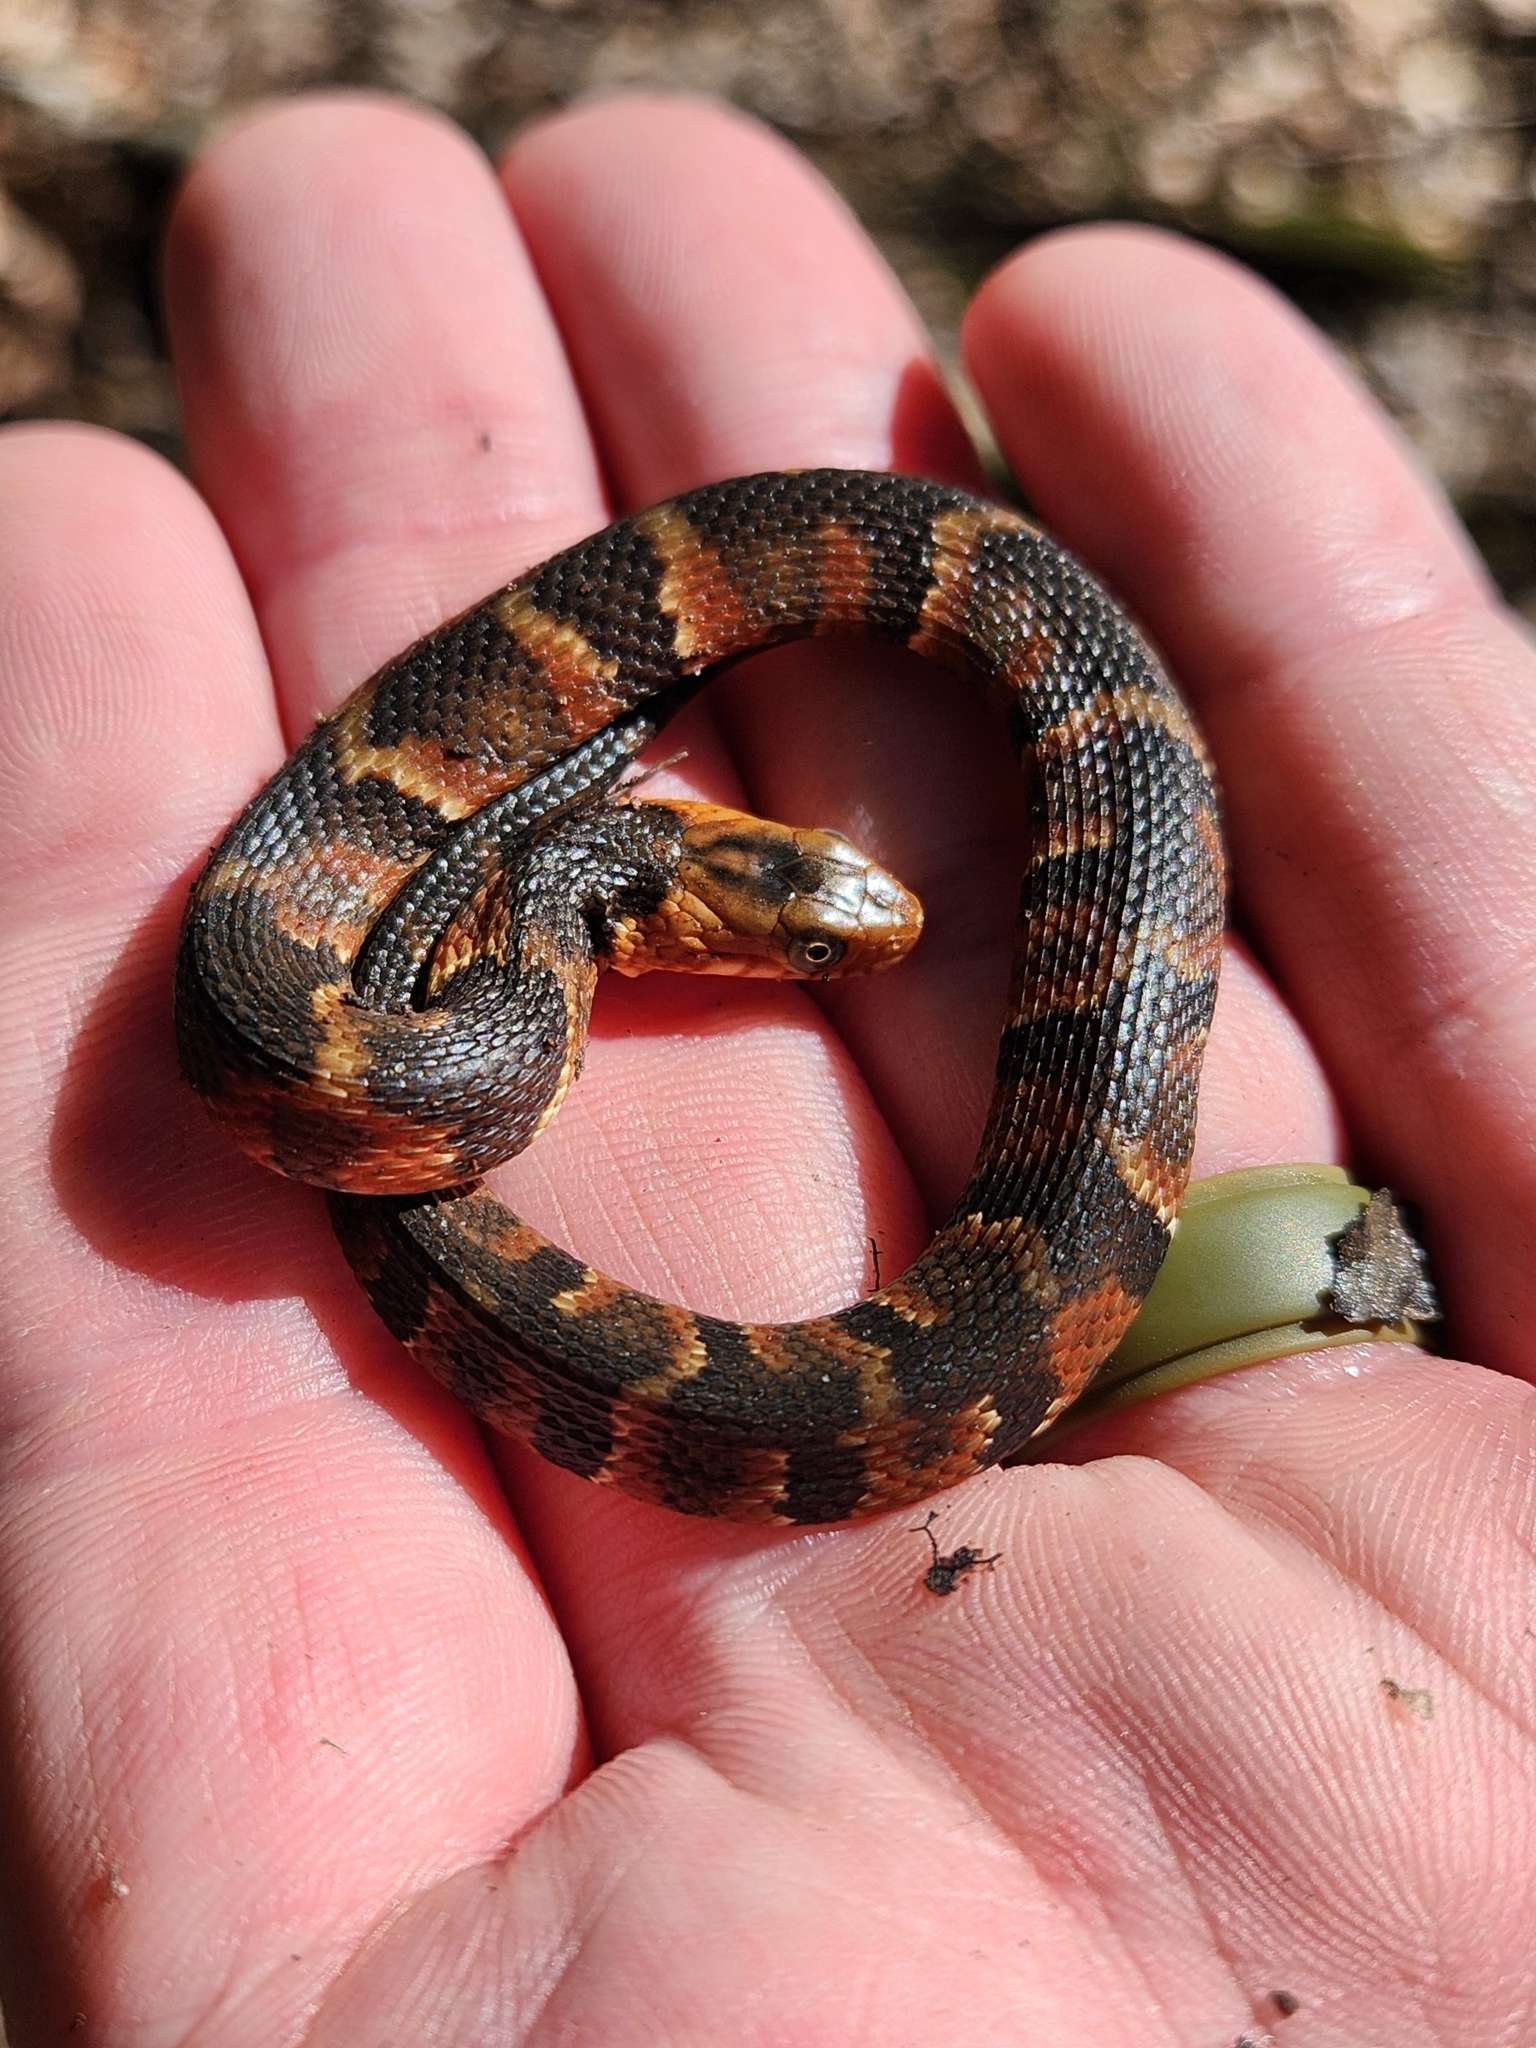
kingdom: Animalia
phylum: Chordata
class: Squamata
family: Colubridae
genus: Nerodia
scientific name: Nerodia fasciata
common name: Southern water snake
